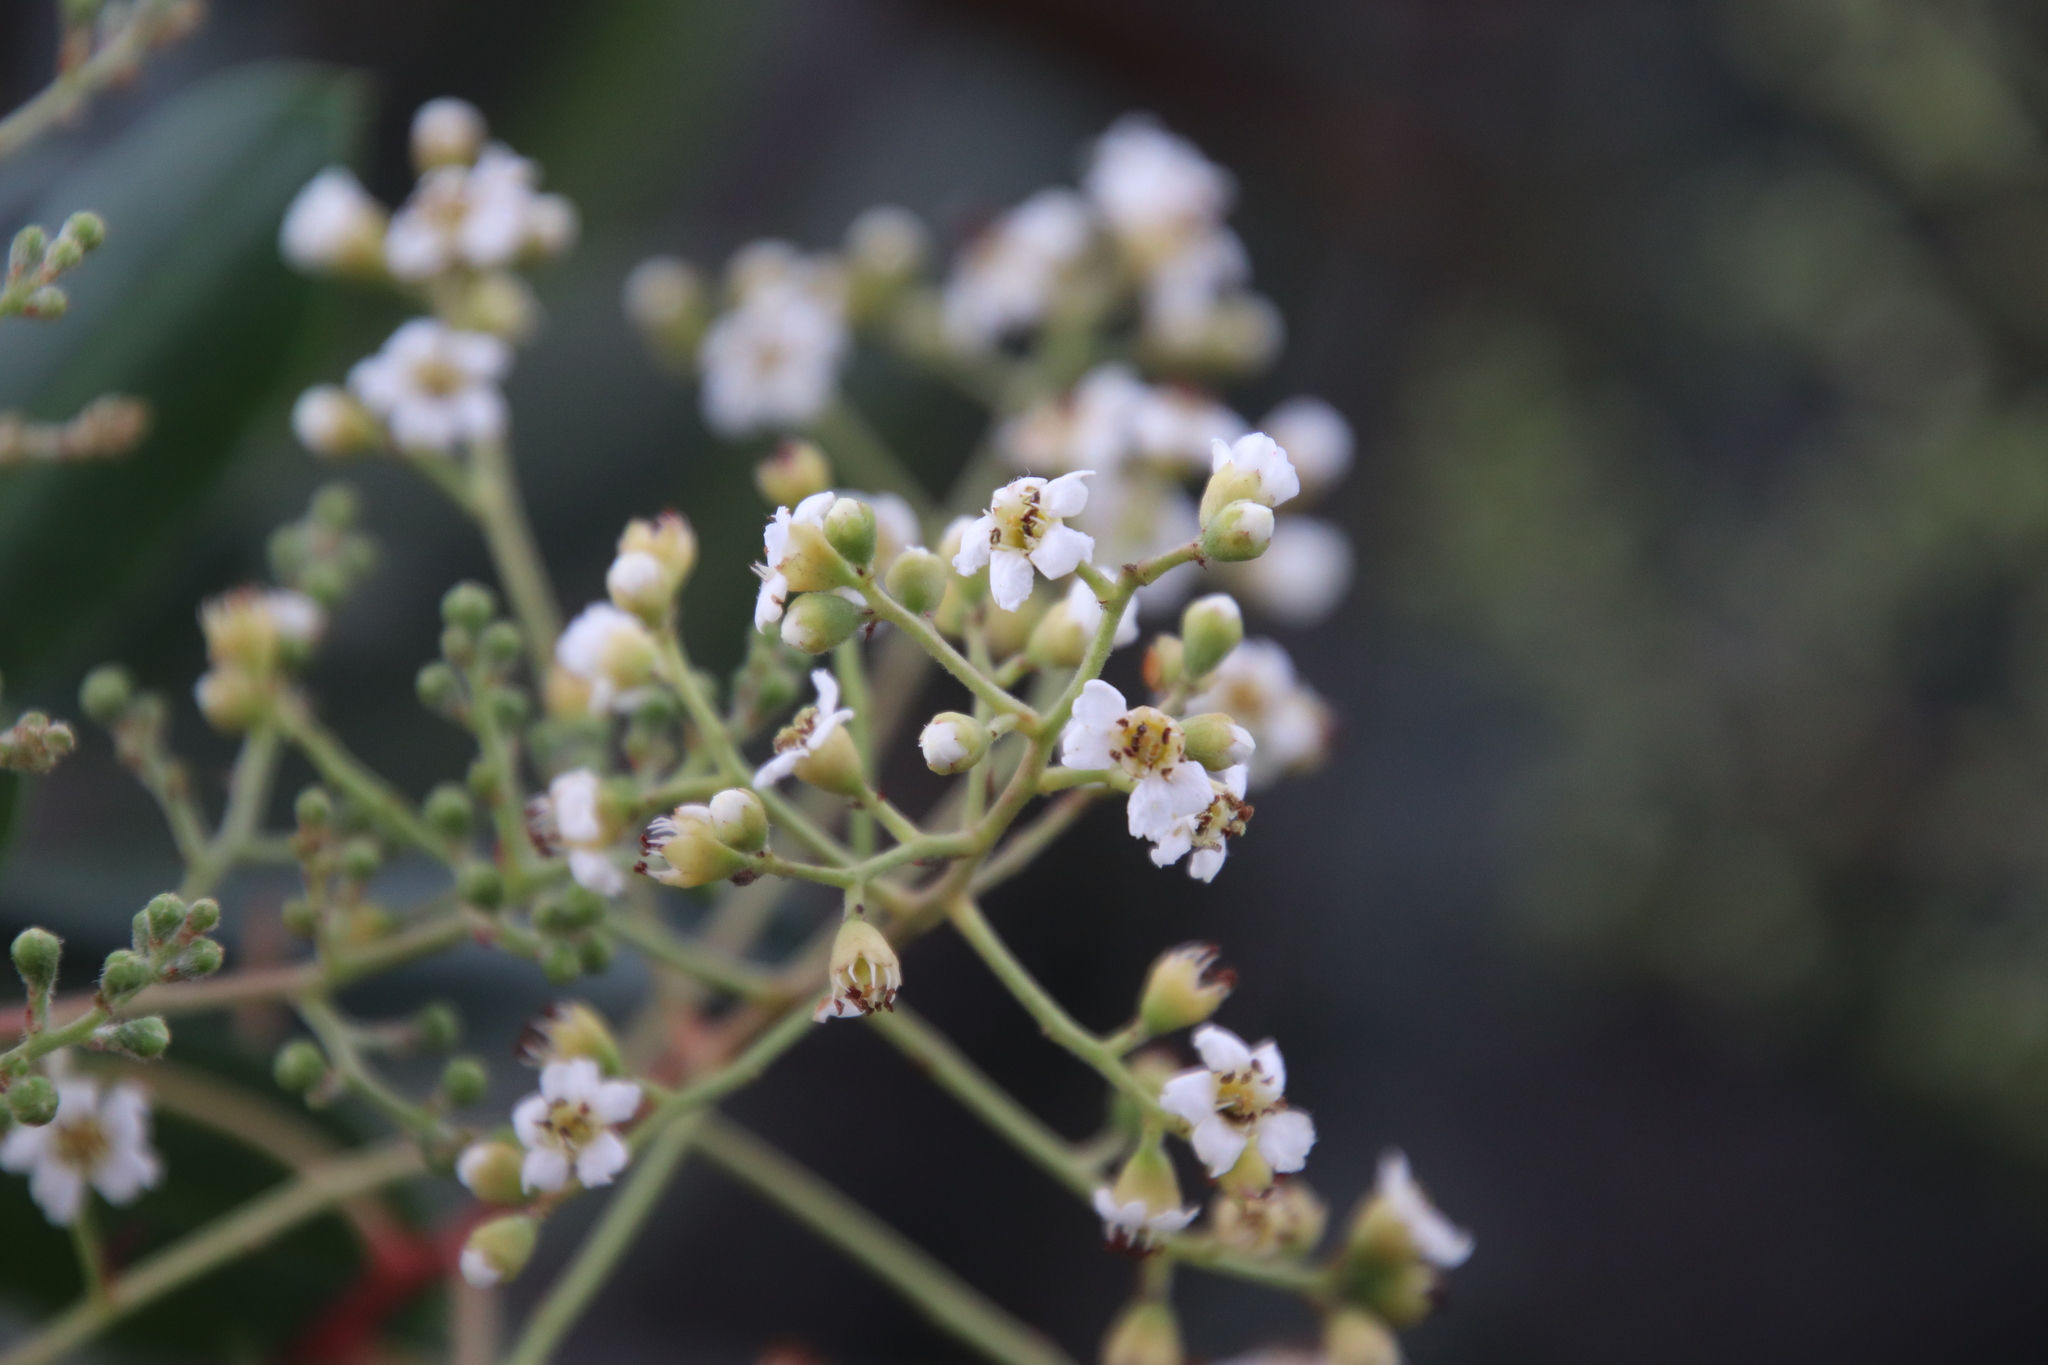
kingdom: Plantae
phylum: Tracheophyta
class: Magnoliopsida
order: Rosales
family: Rosaceae
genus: Heteromeles
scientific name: Heteromeles arbutifolia
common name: California-holly
